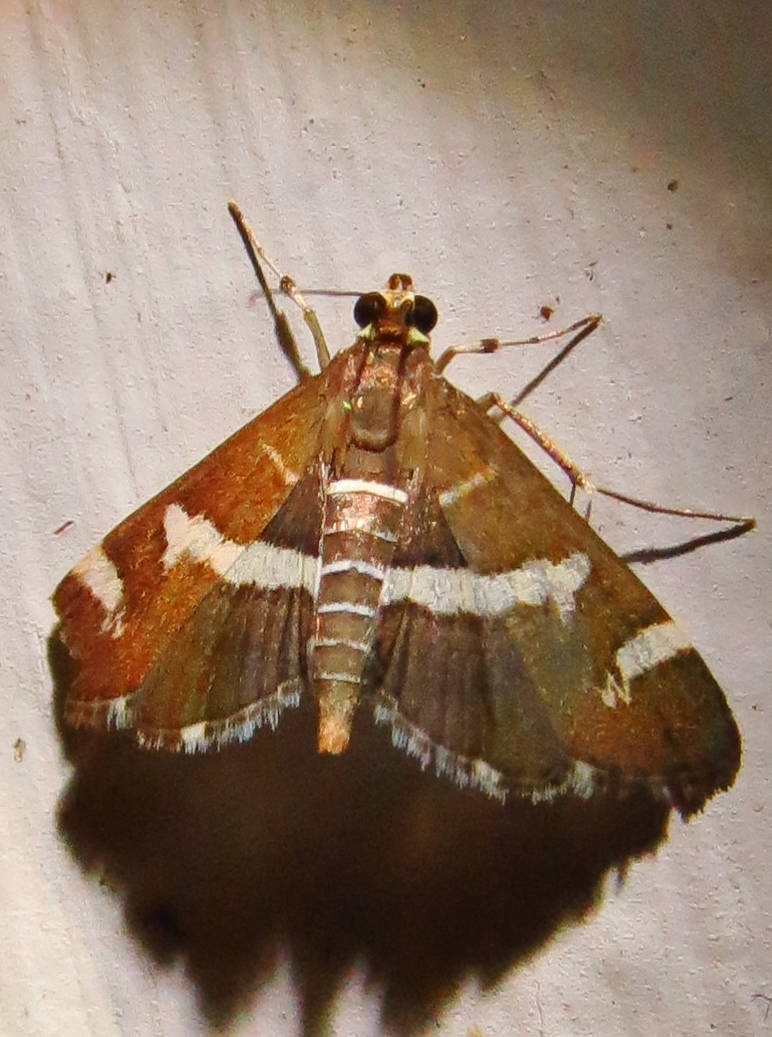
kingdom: Animalia
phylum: Arthropoda
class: Insecta
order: Lepidoptera
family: Crambidae
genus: Spoladea
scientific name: Spoladea recurvalis
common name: Beet webworm moth
